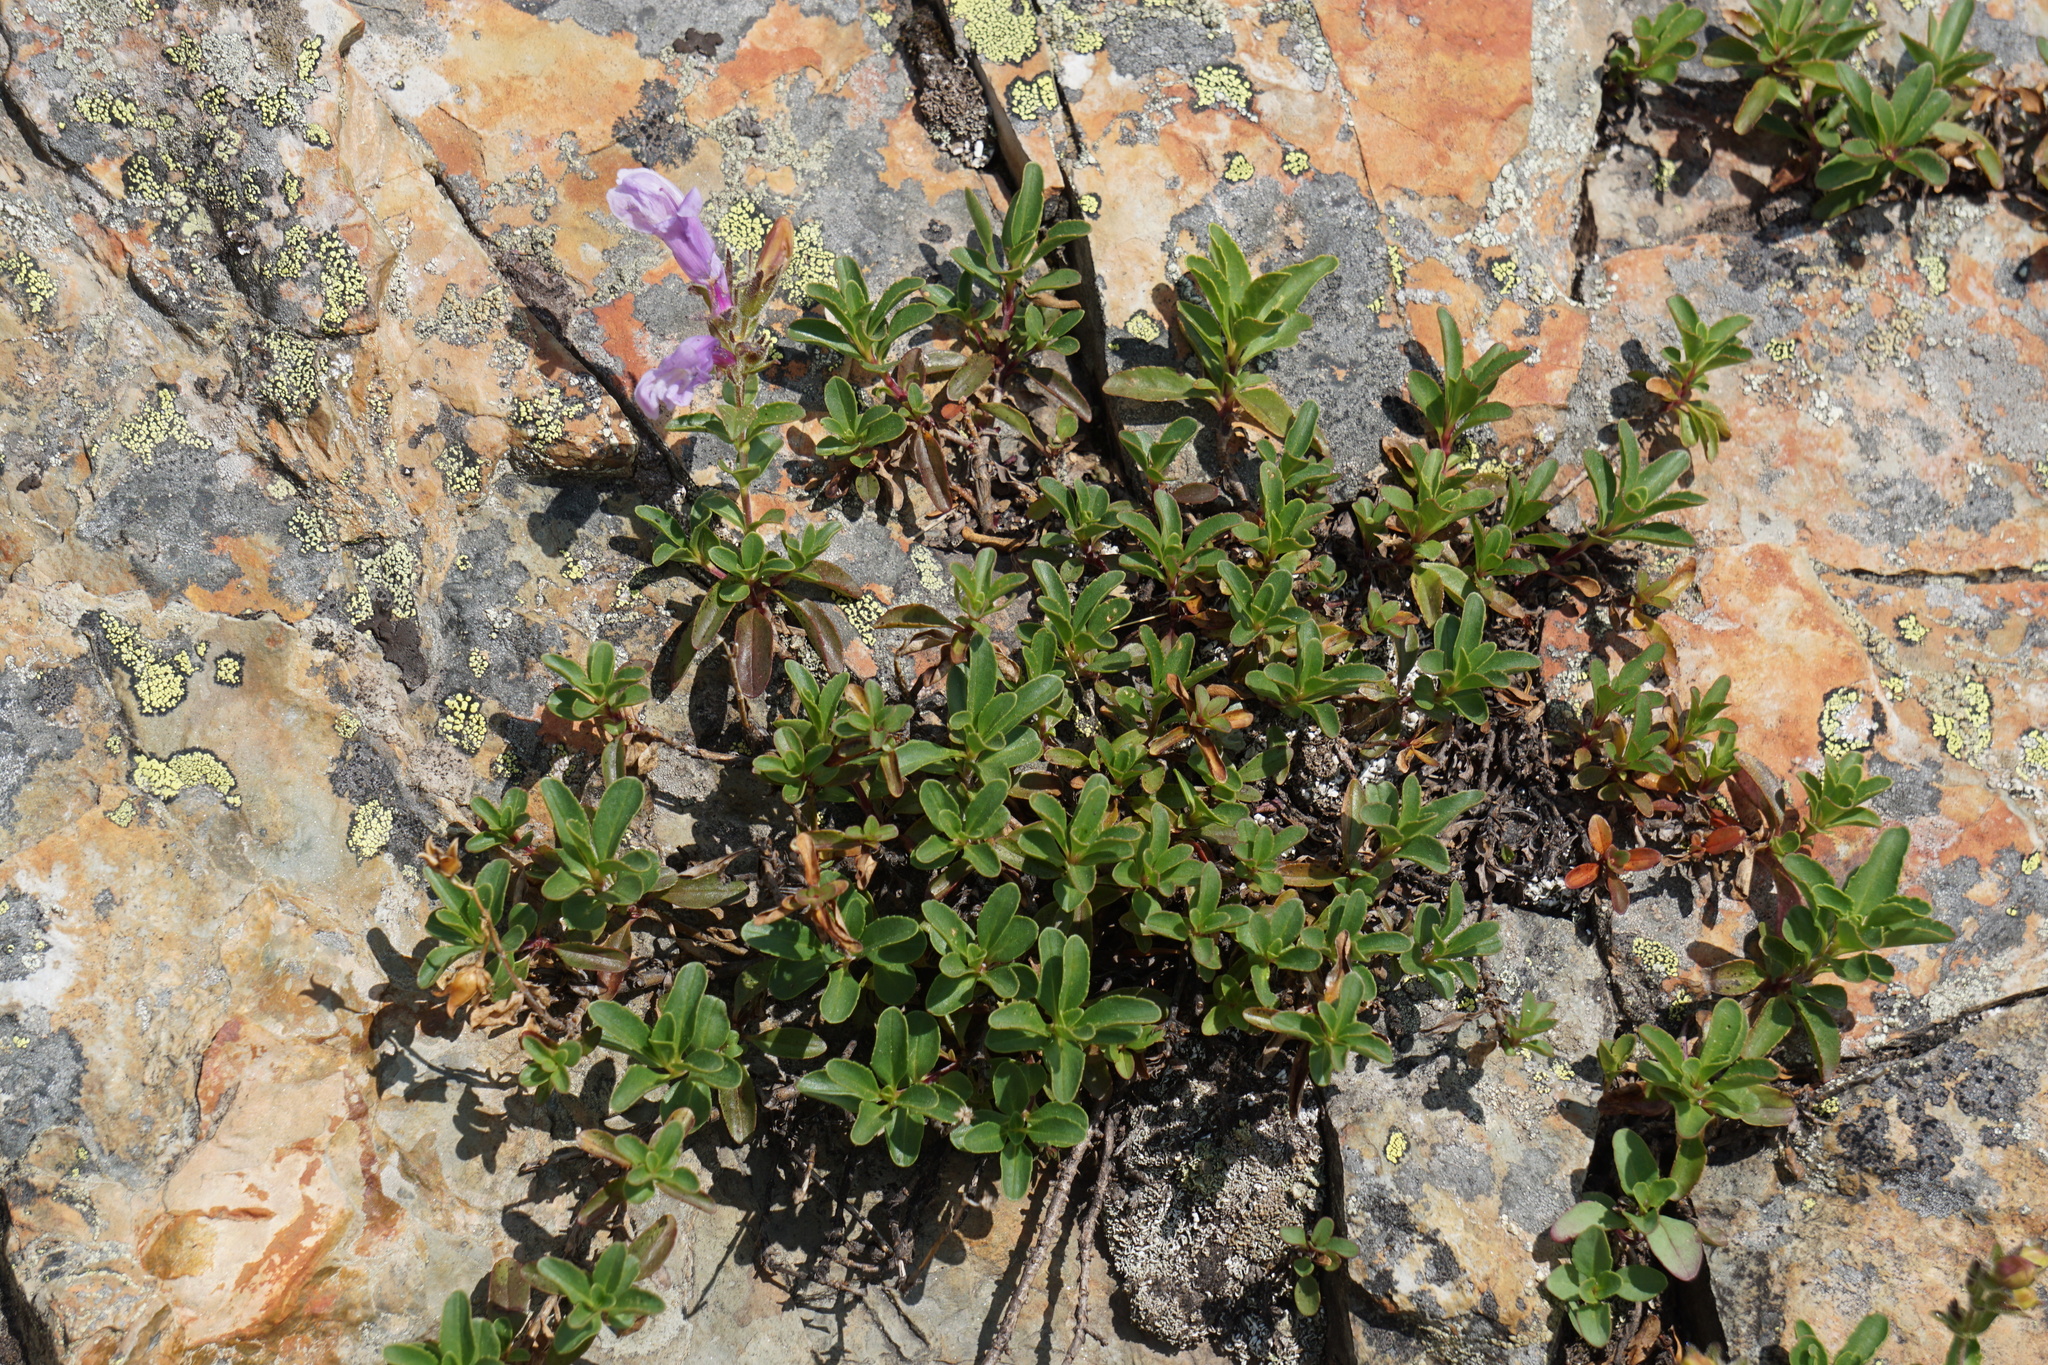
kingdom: Plantae
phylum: Tracheophyta
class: Magnoliopsida
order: Lamiales
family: Plantaginaceae
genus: Penstemon
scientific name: Penstemon ellipticus
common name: Alpine beardtongue
